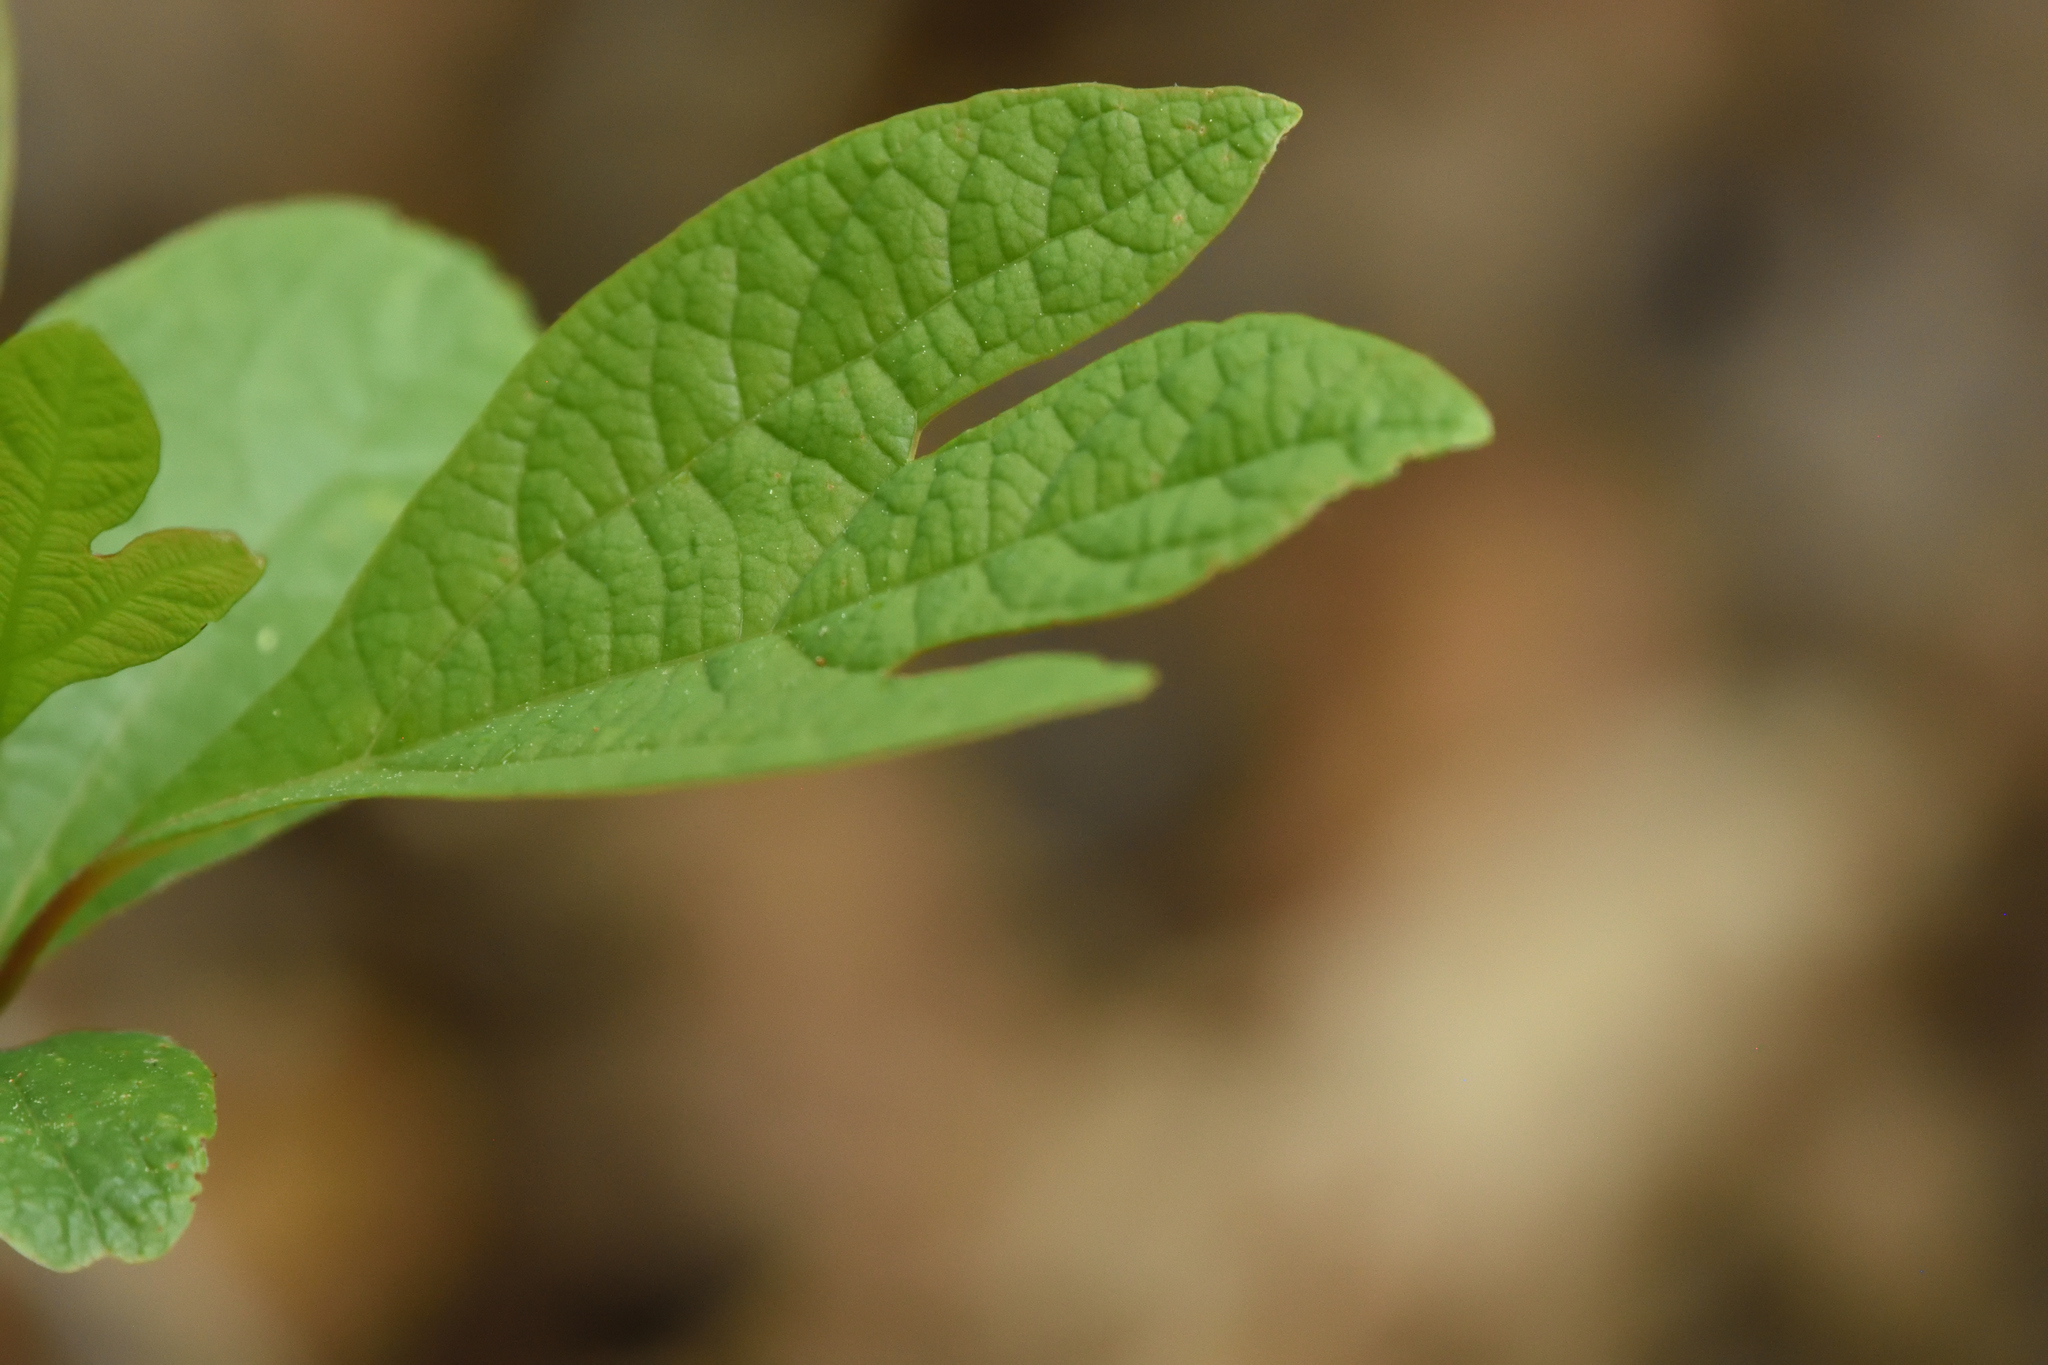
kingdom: Plantae
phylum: Tracheophyta
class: Magnoliopsida
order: Laurales
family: Lauraceae
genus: Sassafras
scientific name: Sassafras albidum
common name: Sassafras
